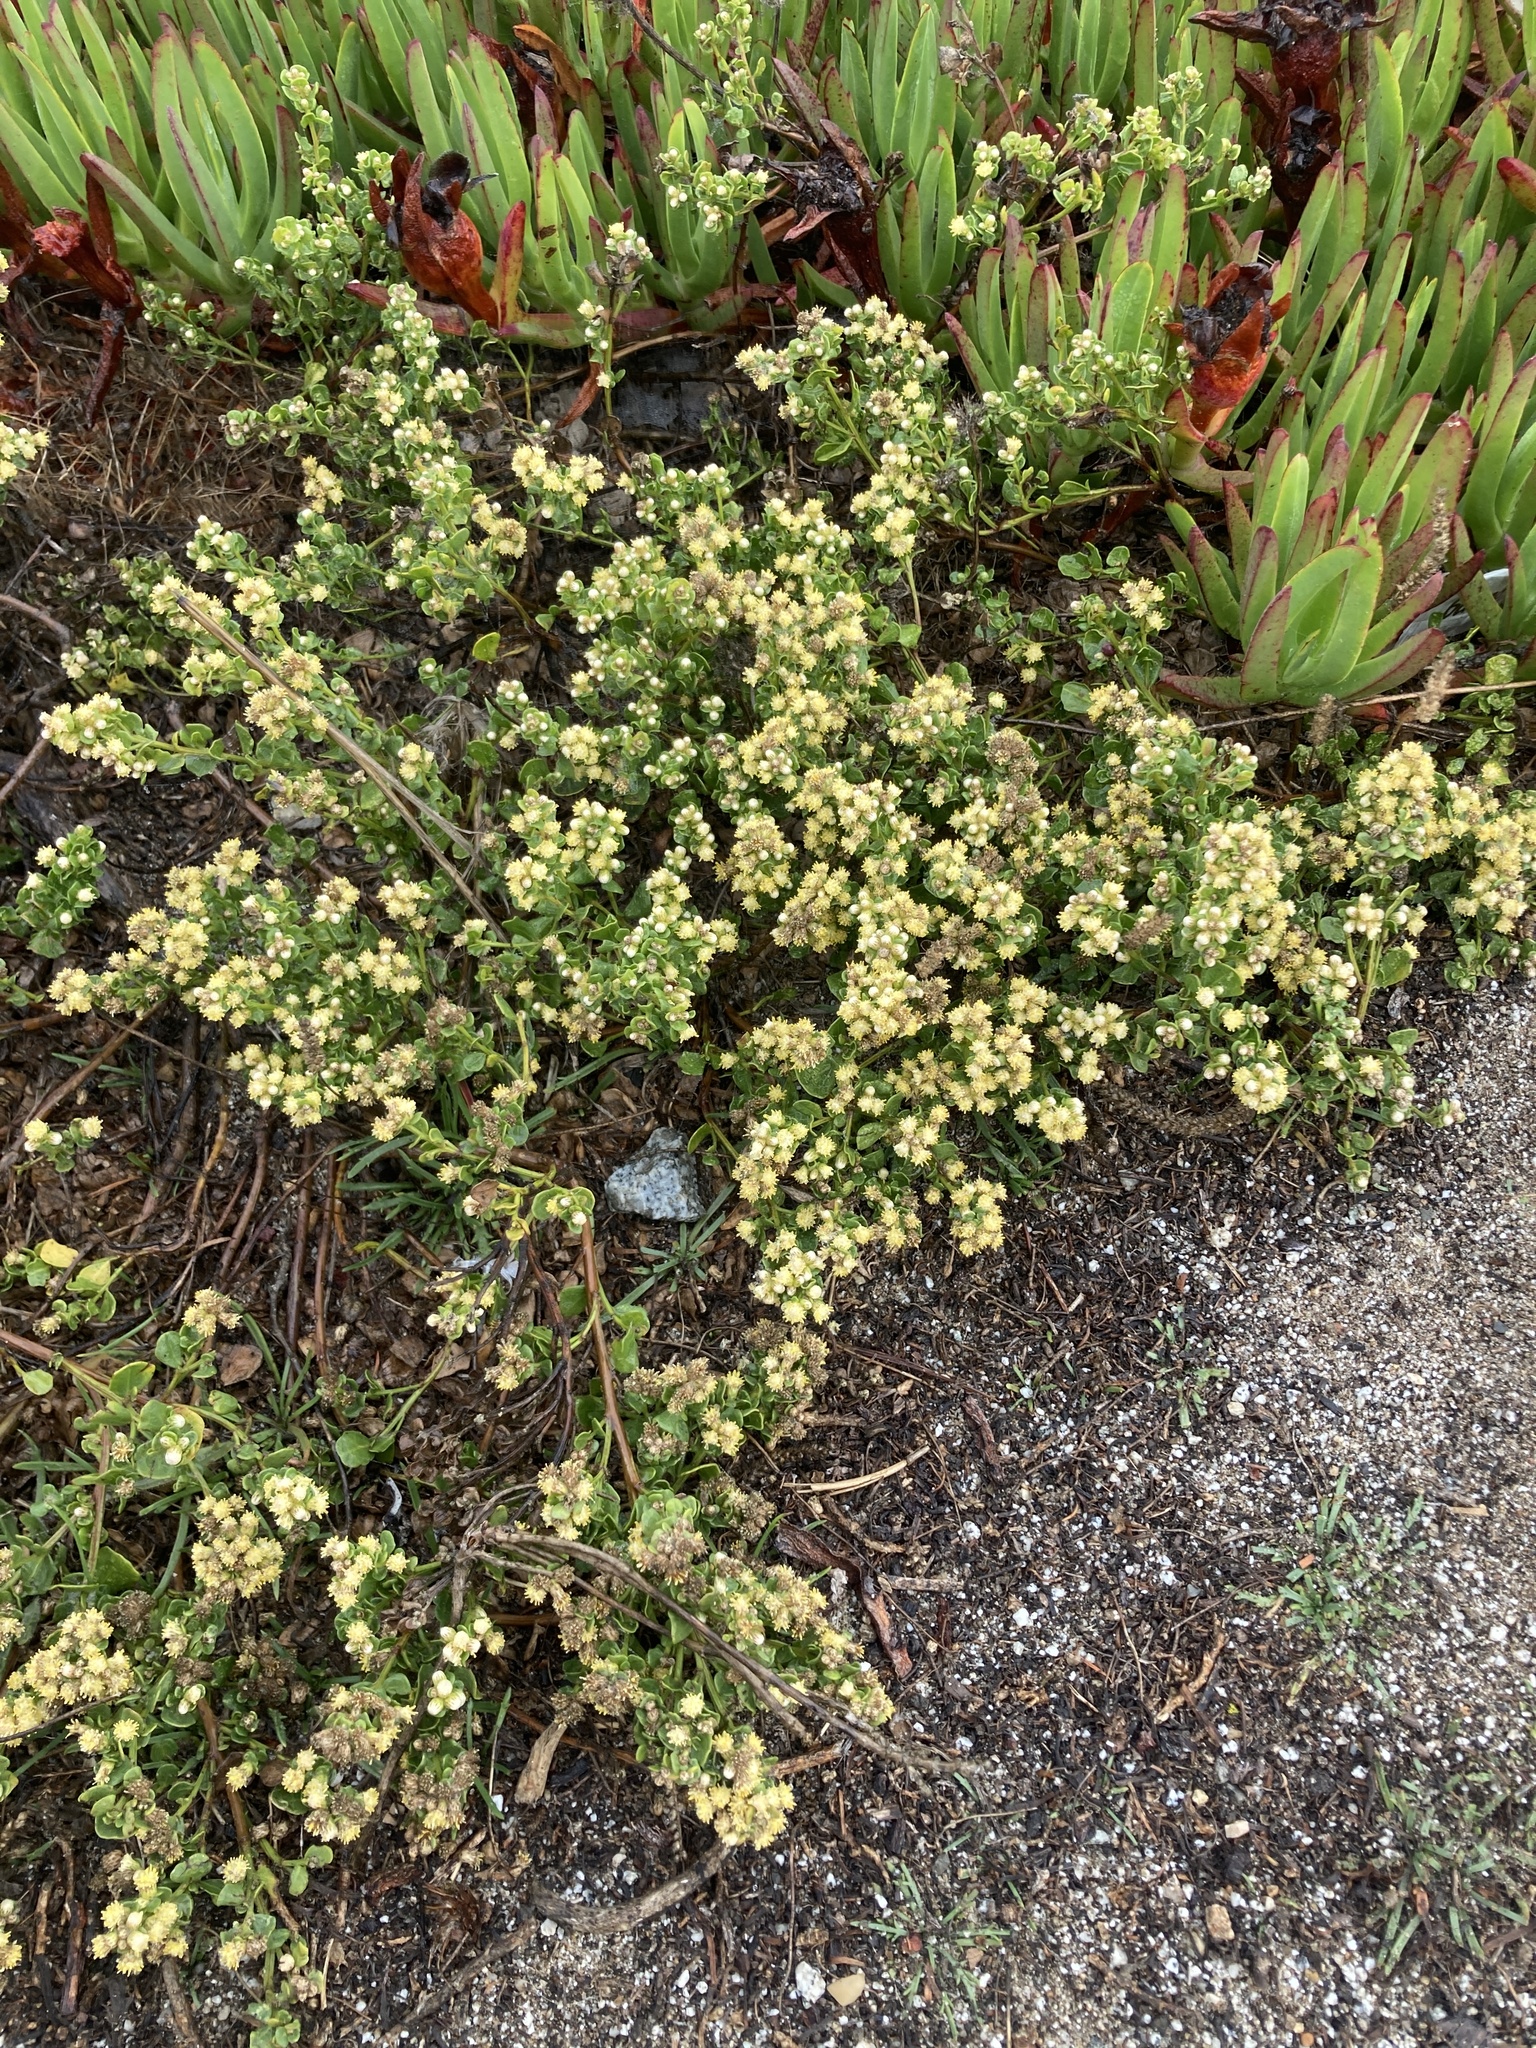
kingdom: Plantae
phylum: Tracheophyta
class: Magnoliopsida
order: Asterales
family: Asteraceae
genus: Baccharis
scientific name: Baccharis pilularis
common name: Coyotebrush
